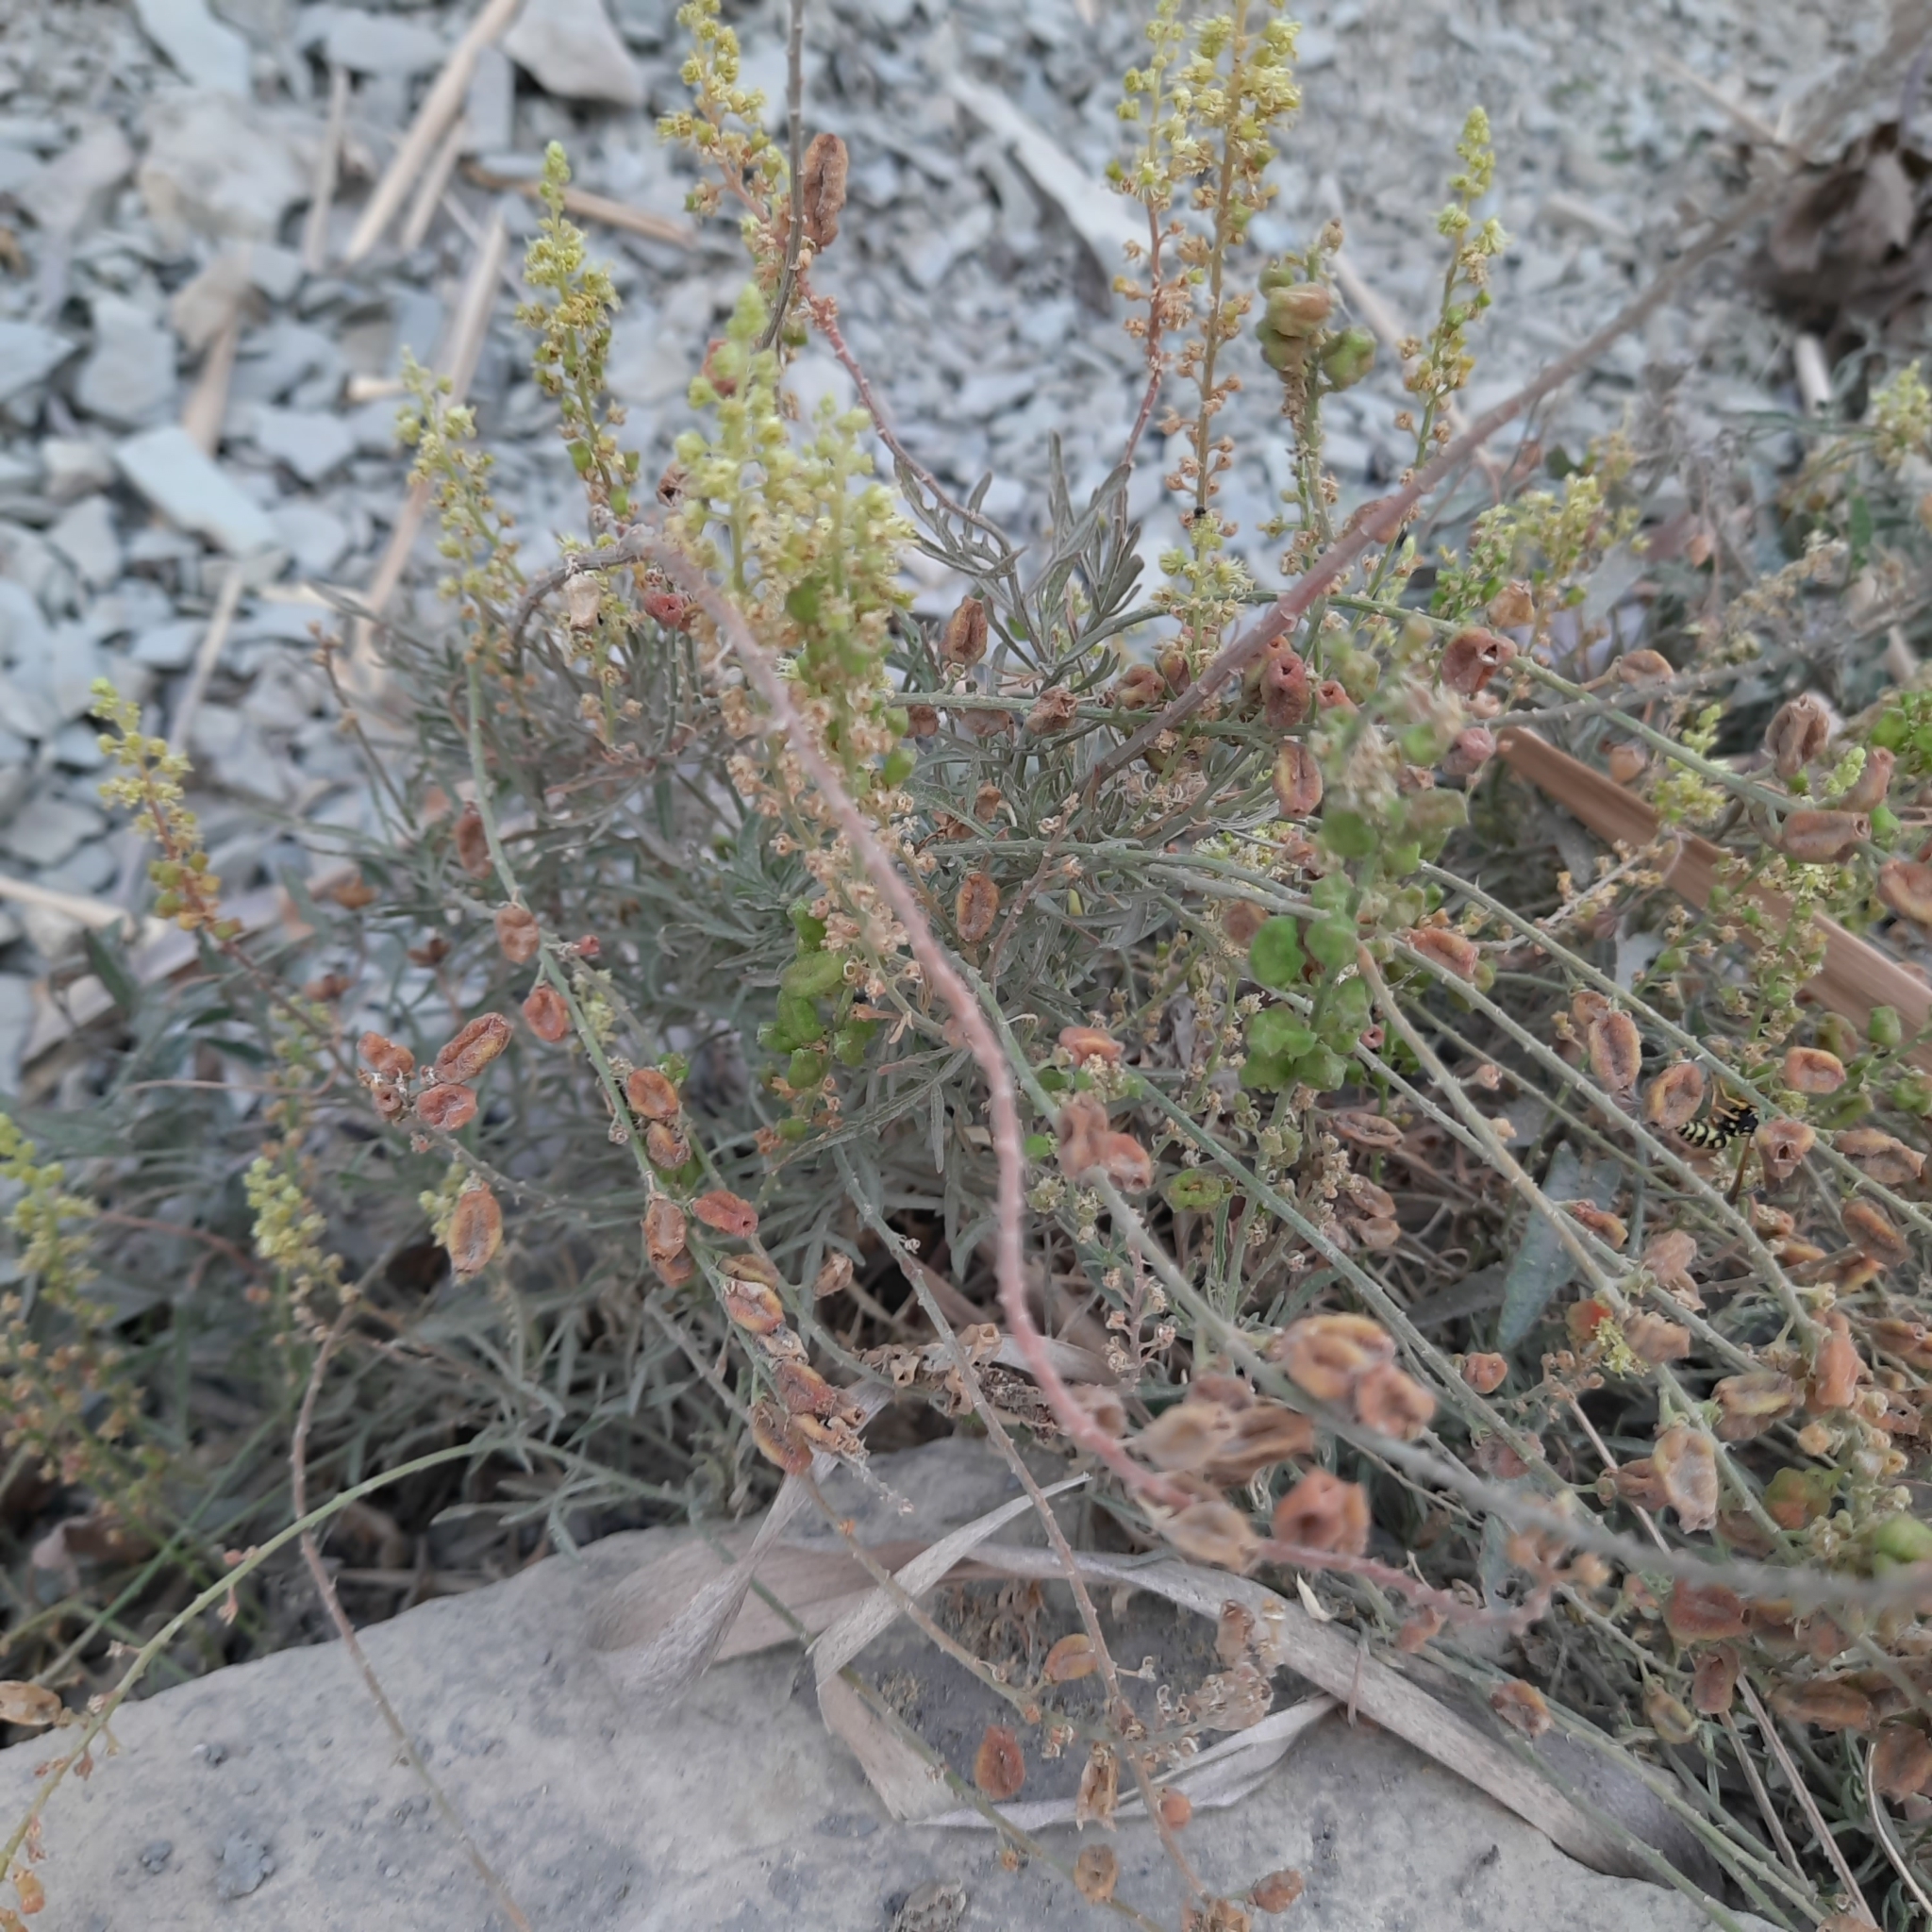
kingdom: Plantae
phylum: Tracheophyta
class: Magnoliopsida
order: Brassicales
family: Resedaceae
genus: Reseda
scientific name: Reseda lutea
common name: Wild mignonette
